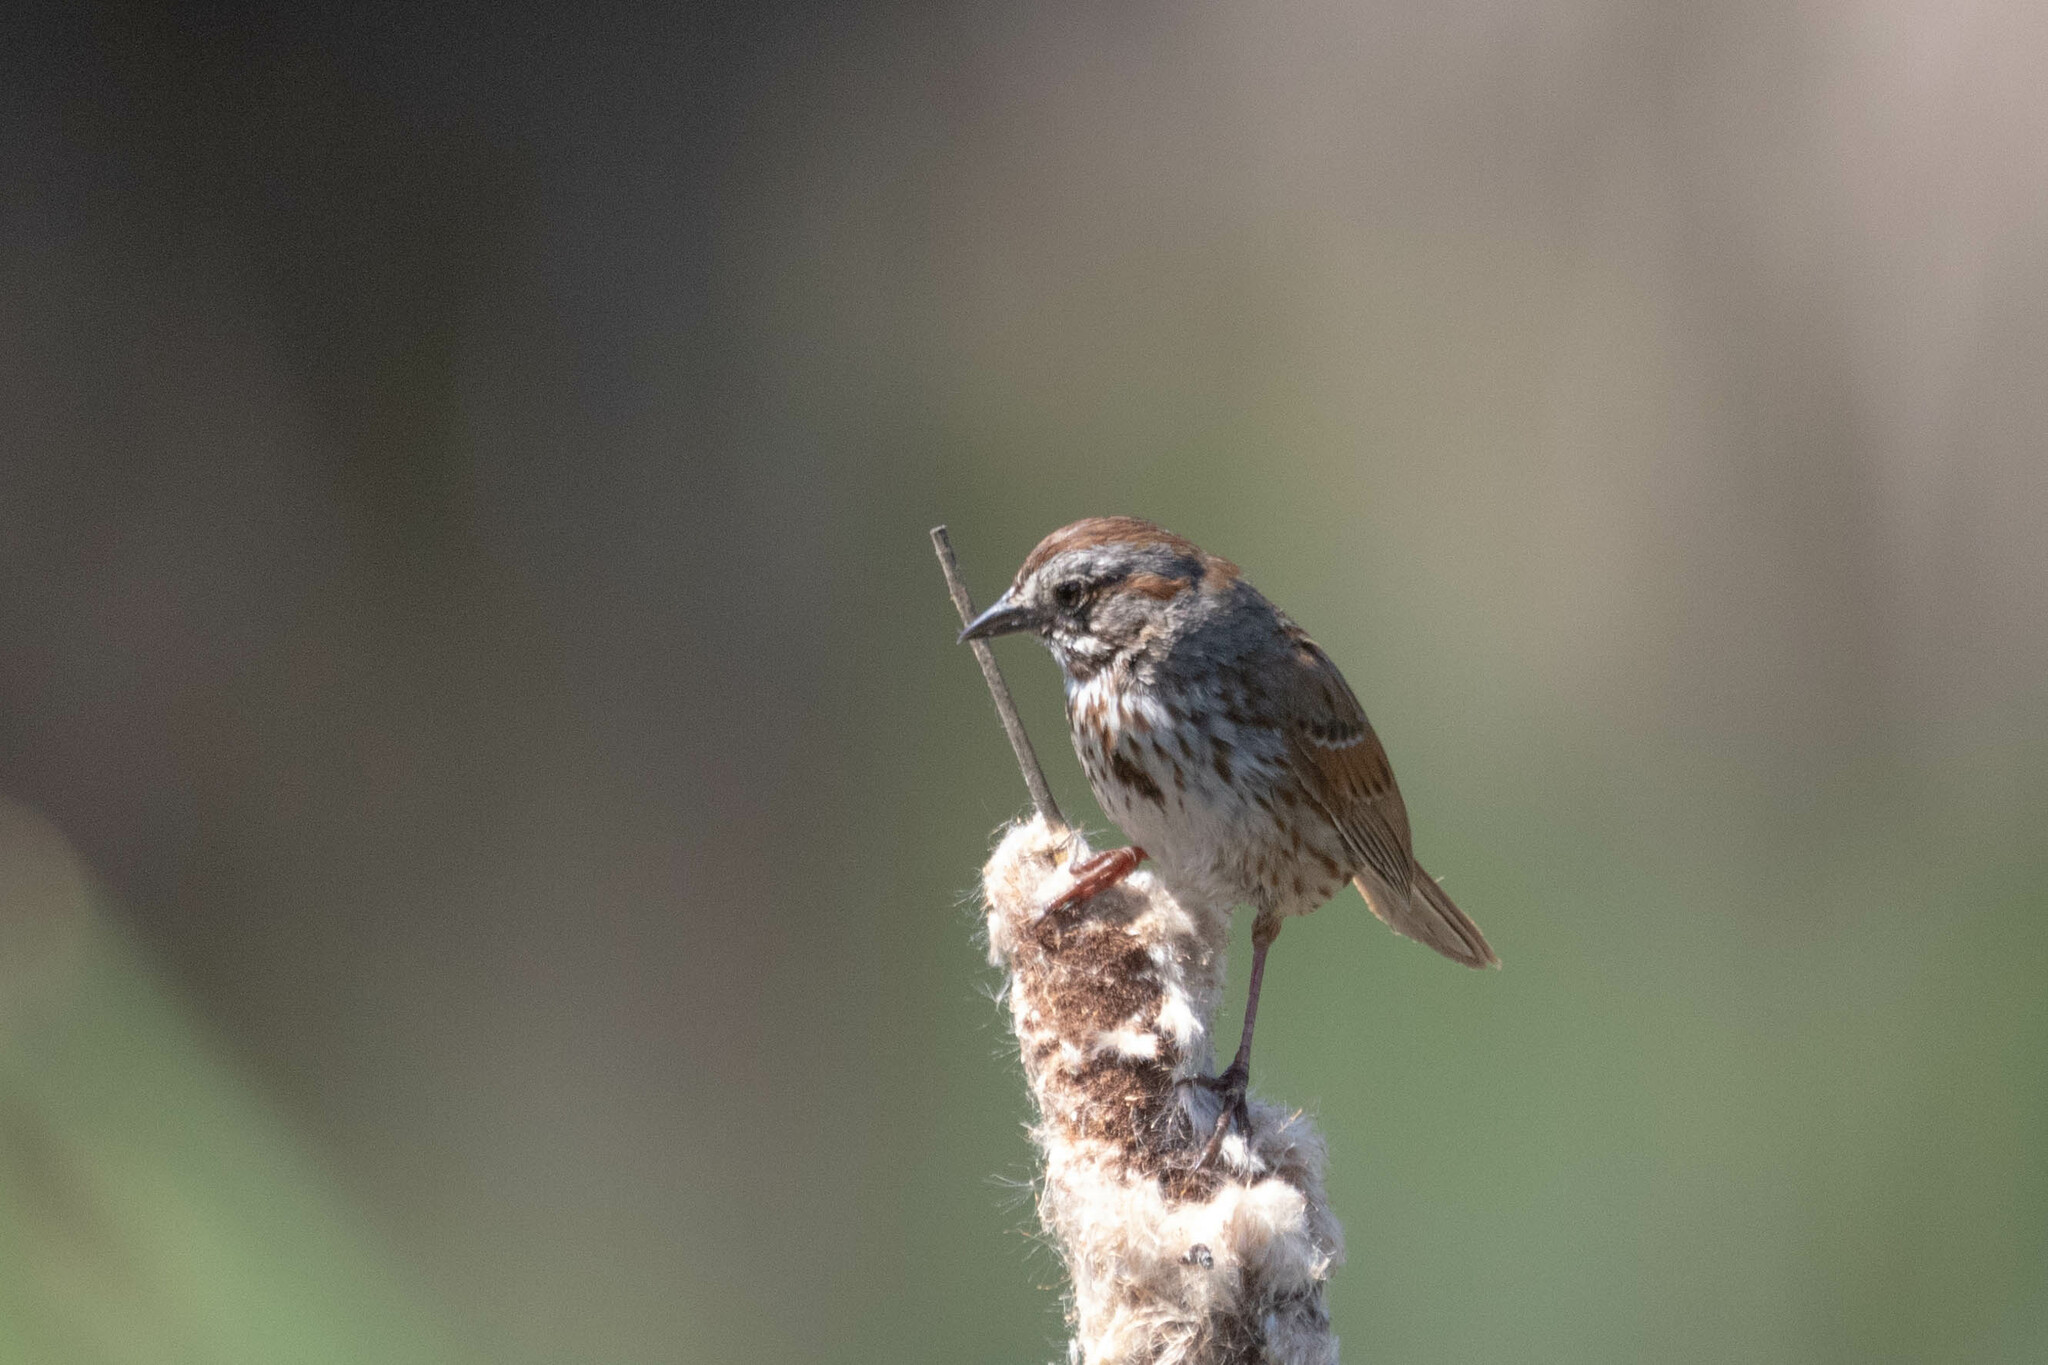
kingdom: Animalia
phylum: Chordata
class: Aves
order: Passeriformes
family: Passerellidae
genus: Melospiza
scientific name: Melospiza melodia
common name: Song sparrow
